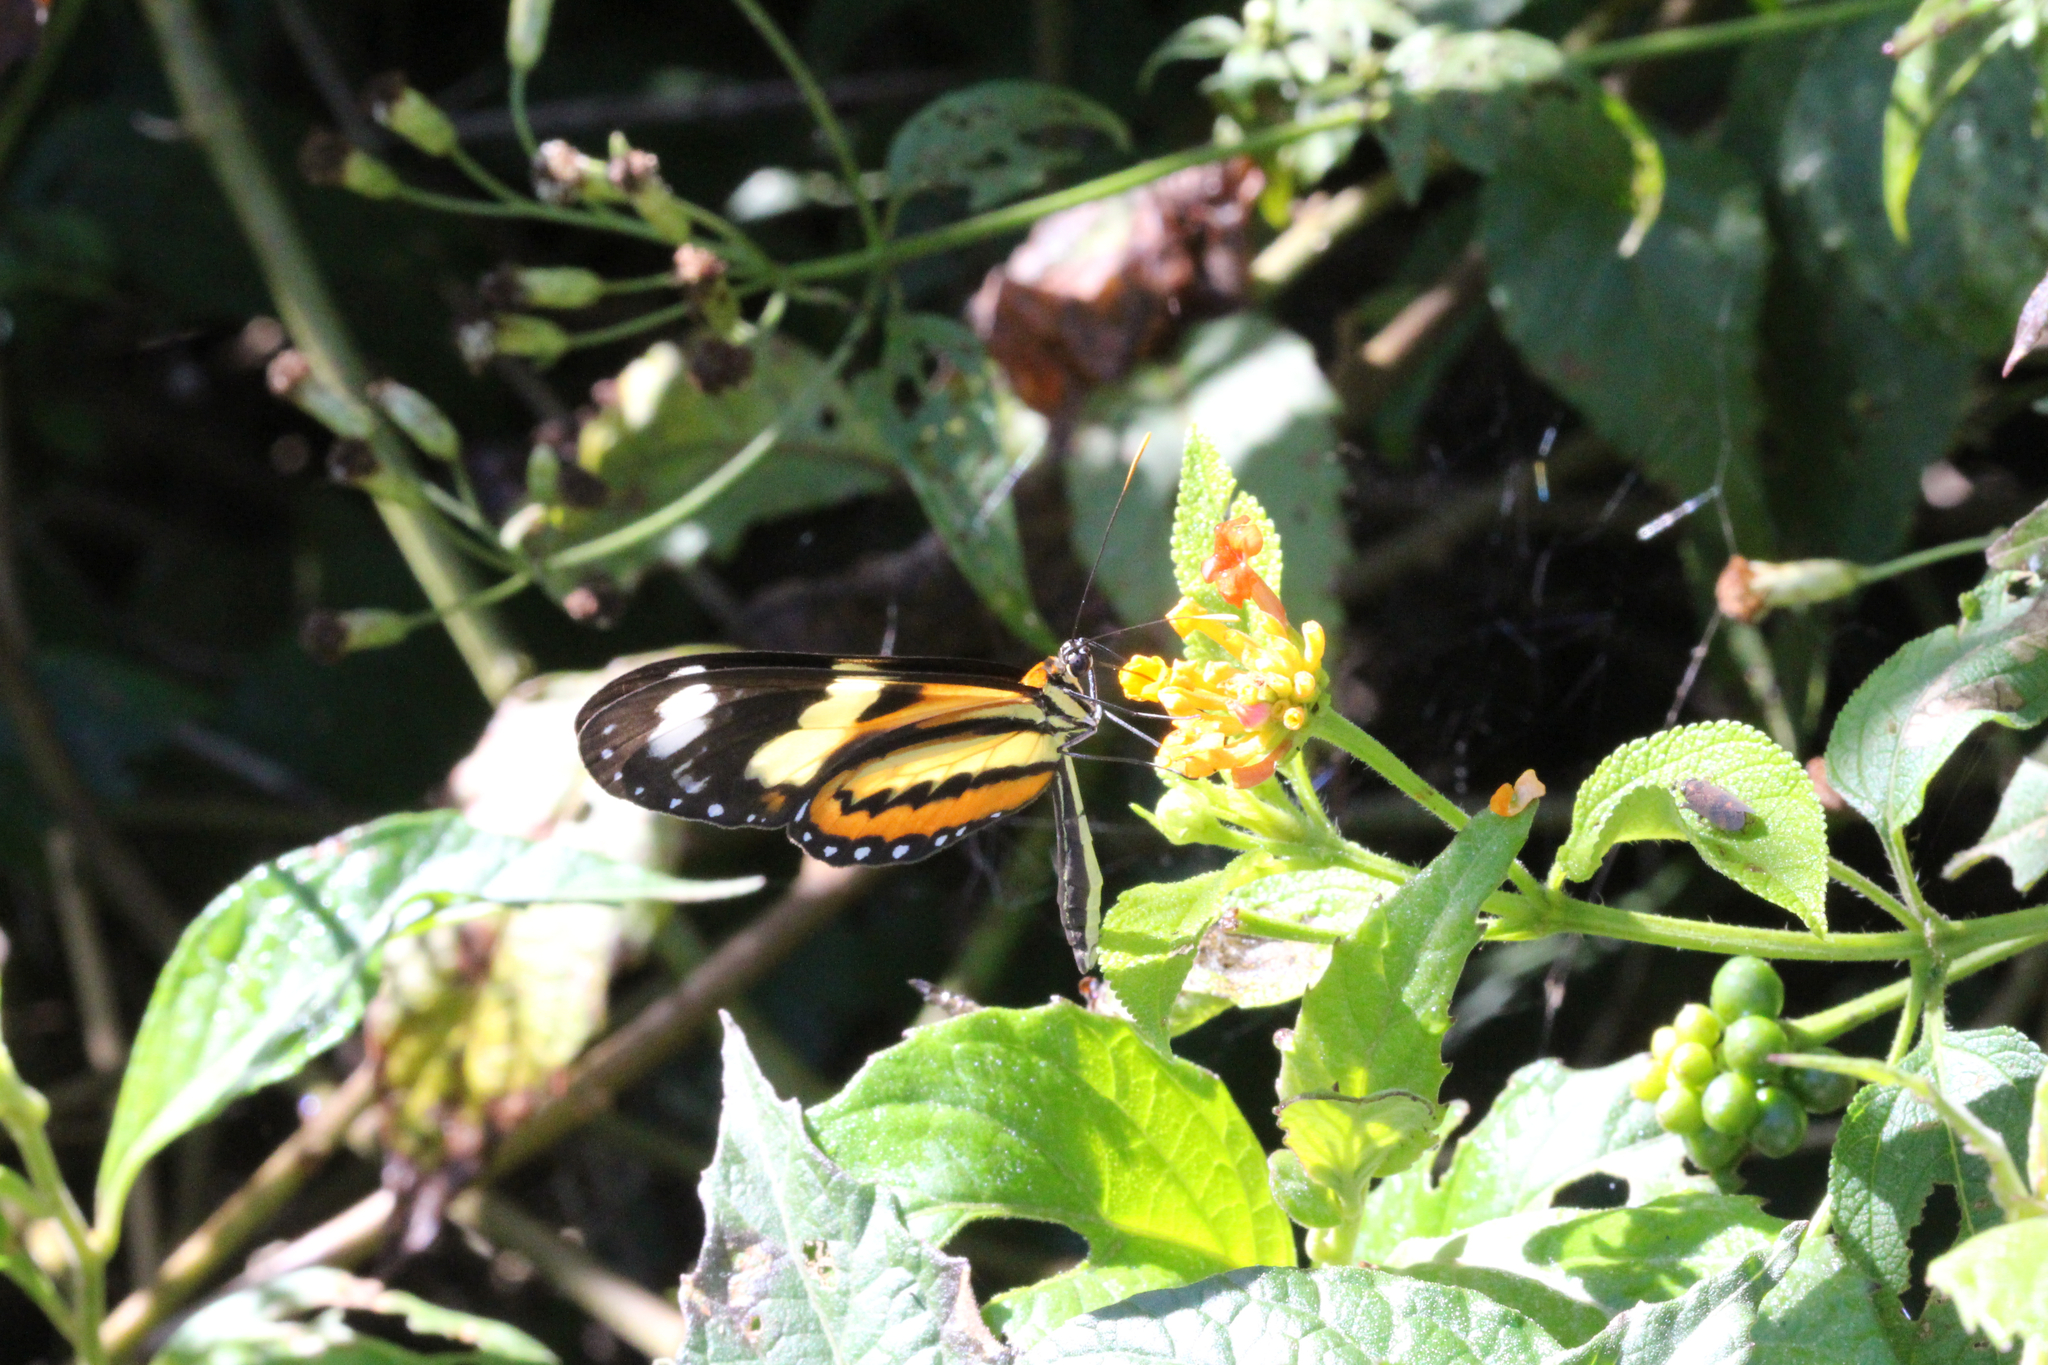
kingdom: Animalia
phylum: Arthropoda
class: Insecta
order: Lepidoptera
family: Nymphalidae
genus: Mechanitis
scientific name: Mechanitis lysimnia
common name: Lysimnia tigerwing
